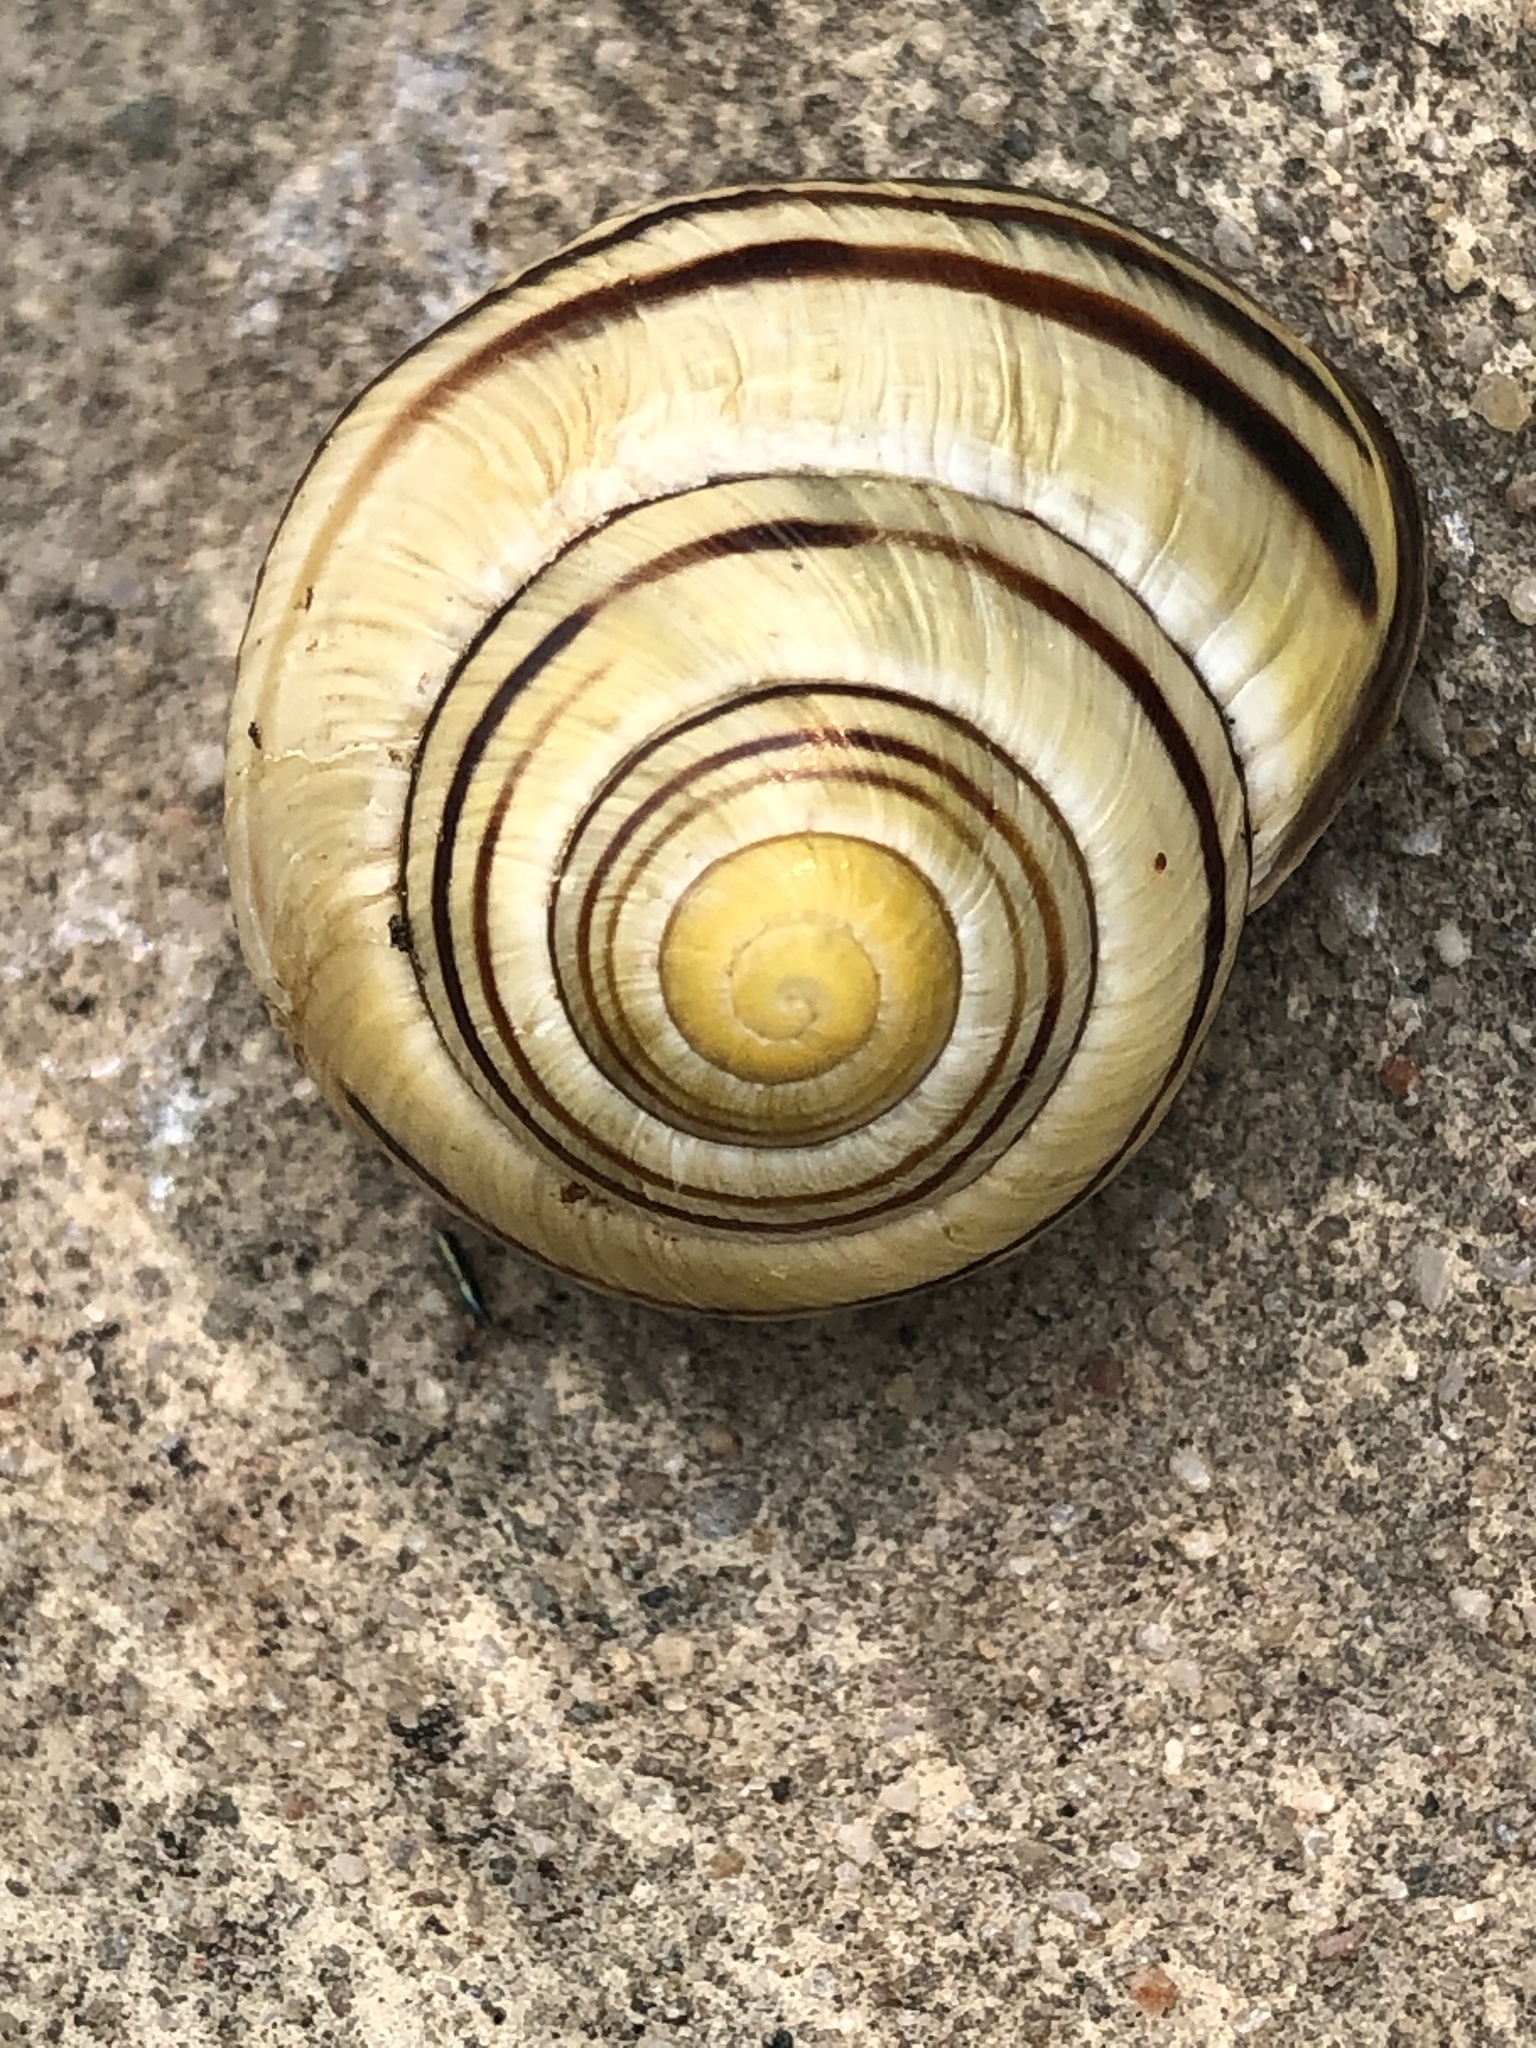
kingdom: Animalia
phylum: Mollusca
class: Gastropoda
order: Stylommatophora
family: Helicidae
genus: Cepaea
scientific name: Cepaea nemoralis
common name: Grovesnail
